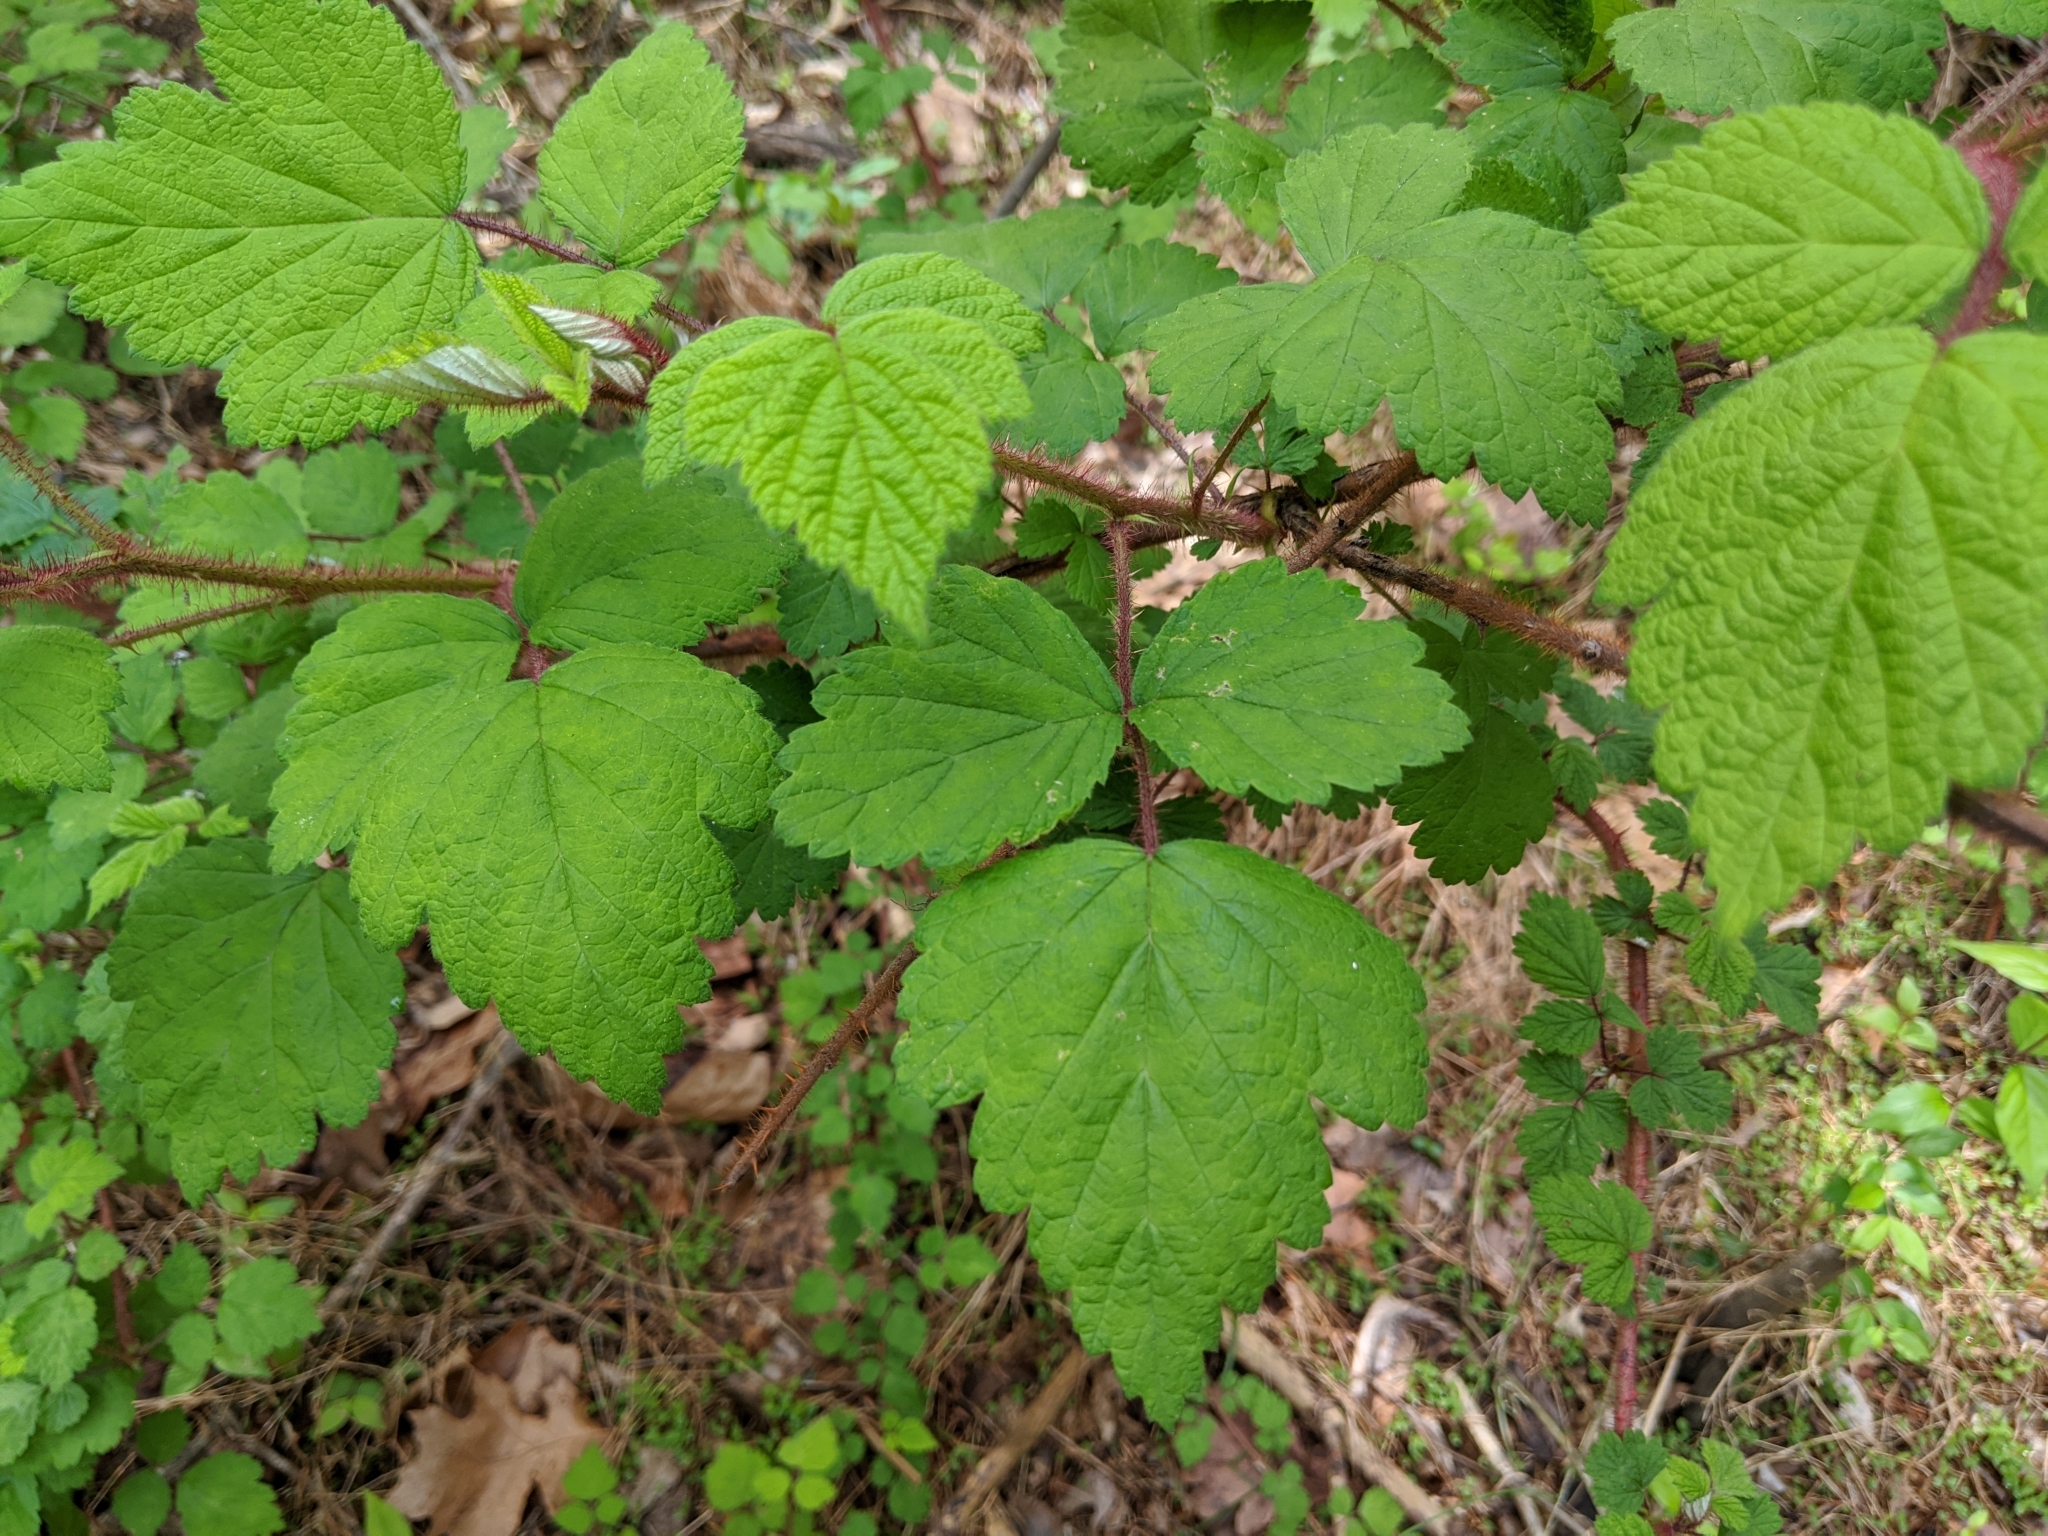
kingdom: Plantae
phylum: Tracheophyta
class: Magnoliopsida
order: Rosales
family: Rosaceae
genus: Rubus
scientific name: Rubus phoenicolasius
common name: Japanese wineberry
